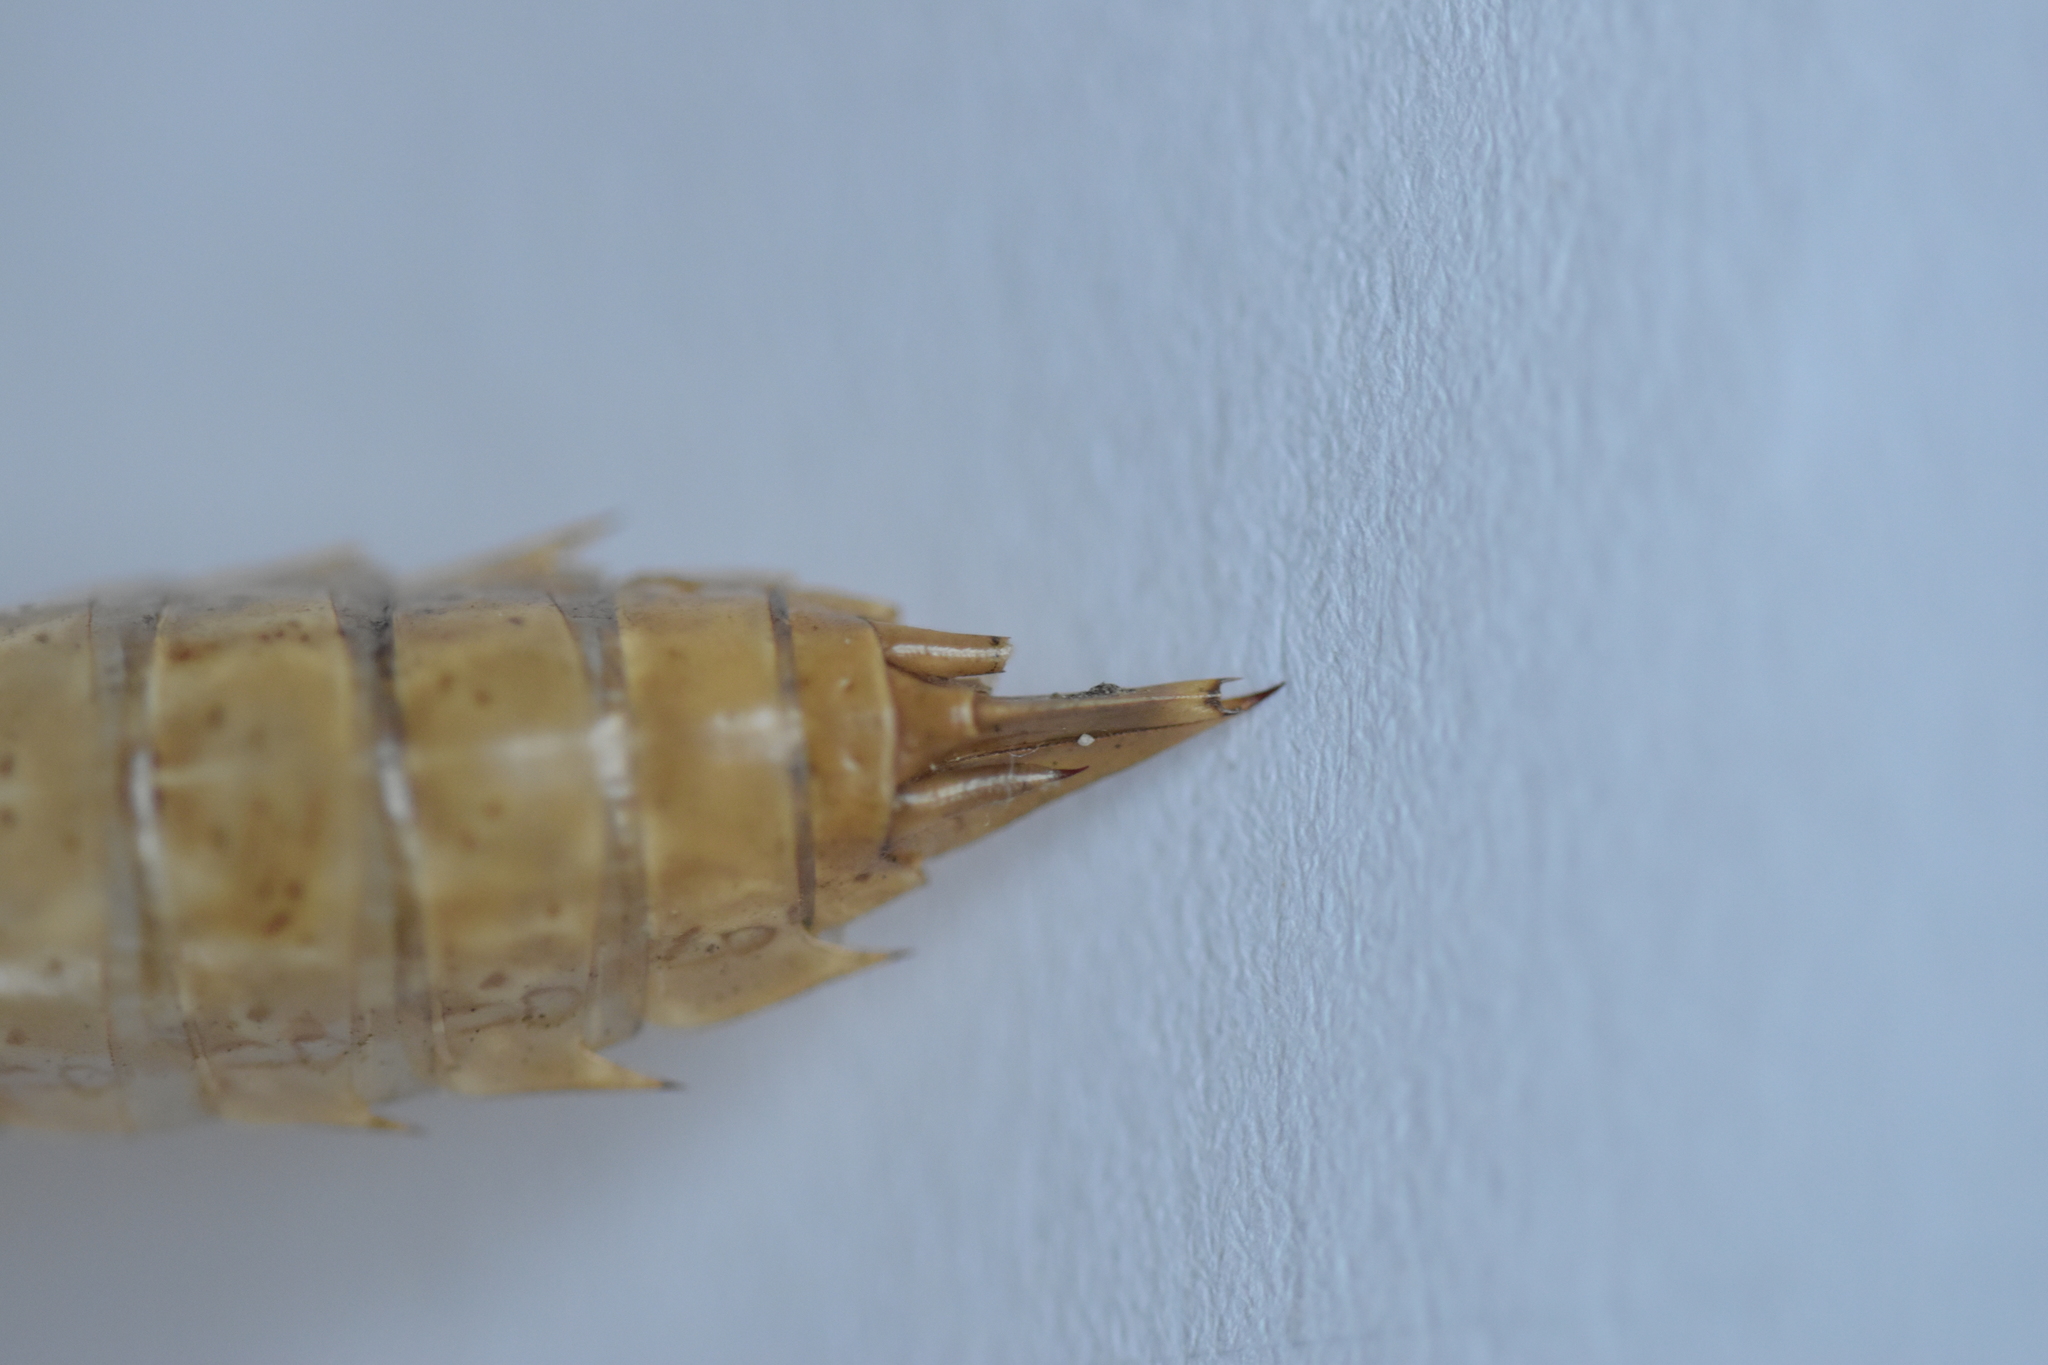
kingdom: Animalia
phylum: Arthropoda
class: Insecta
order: Odonata
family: Aeshnidae
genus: Anax
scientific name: Anax imperator
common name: Emperor dragonfly
